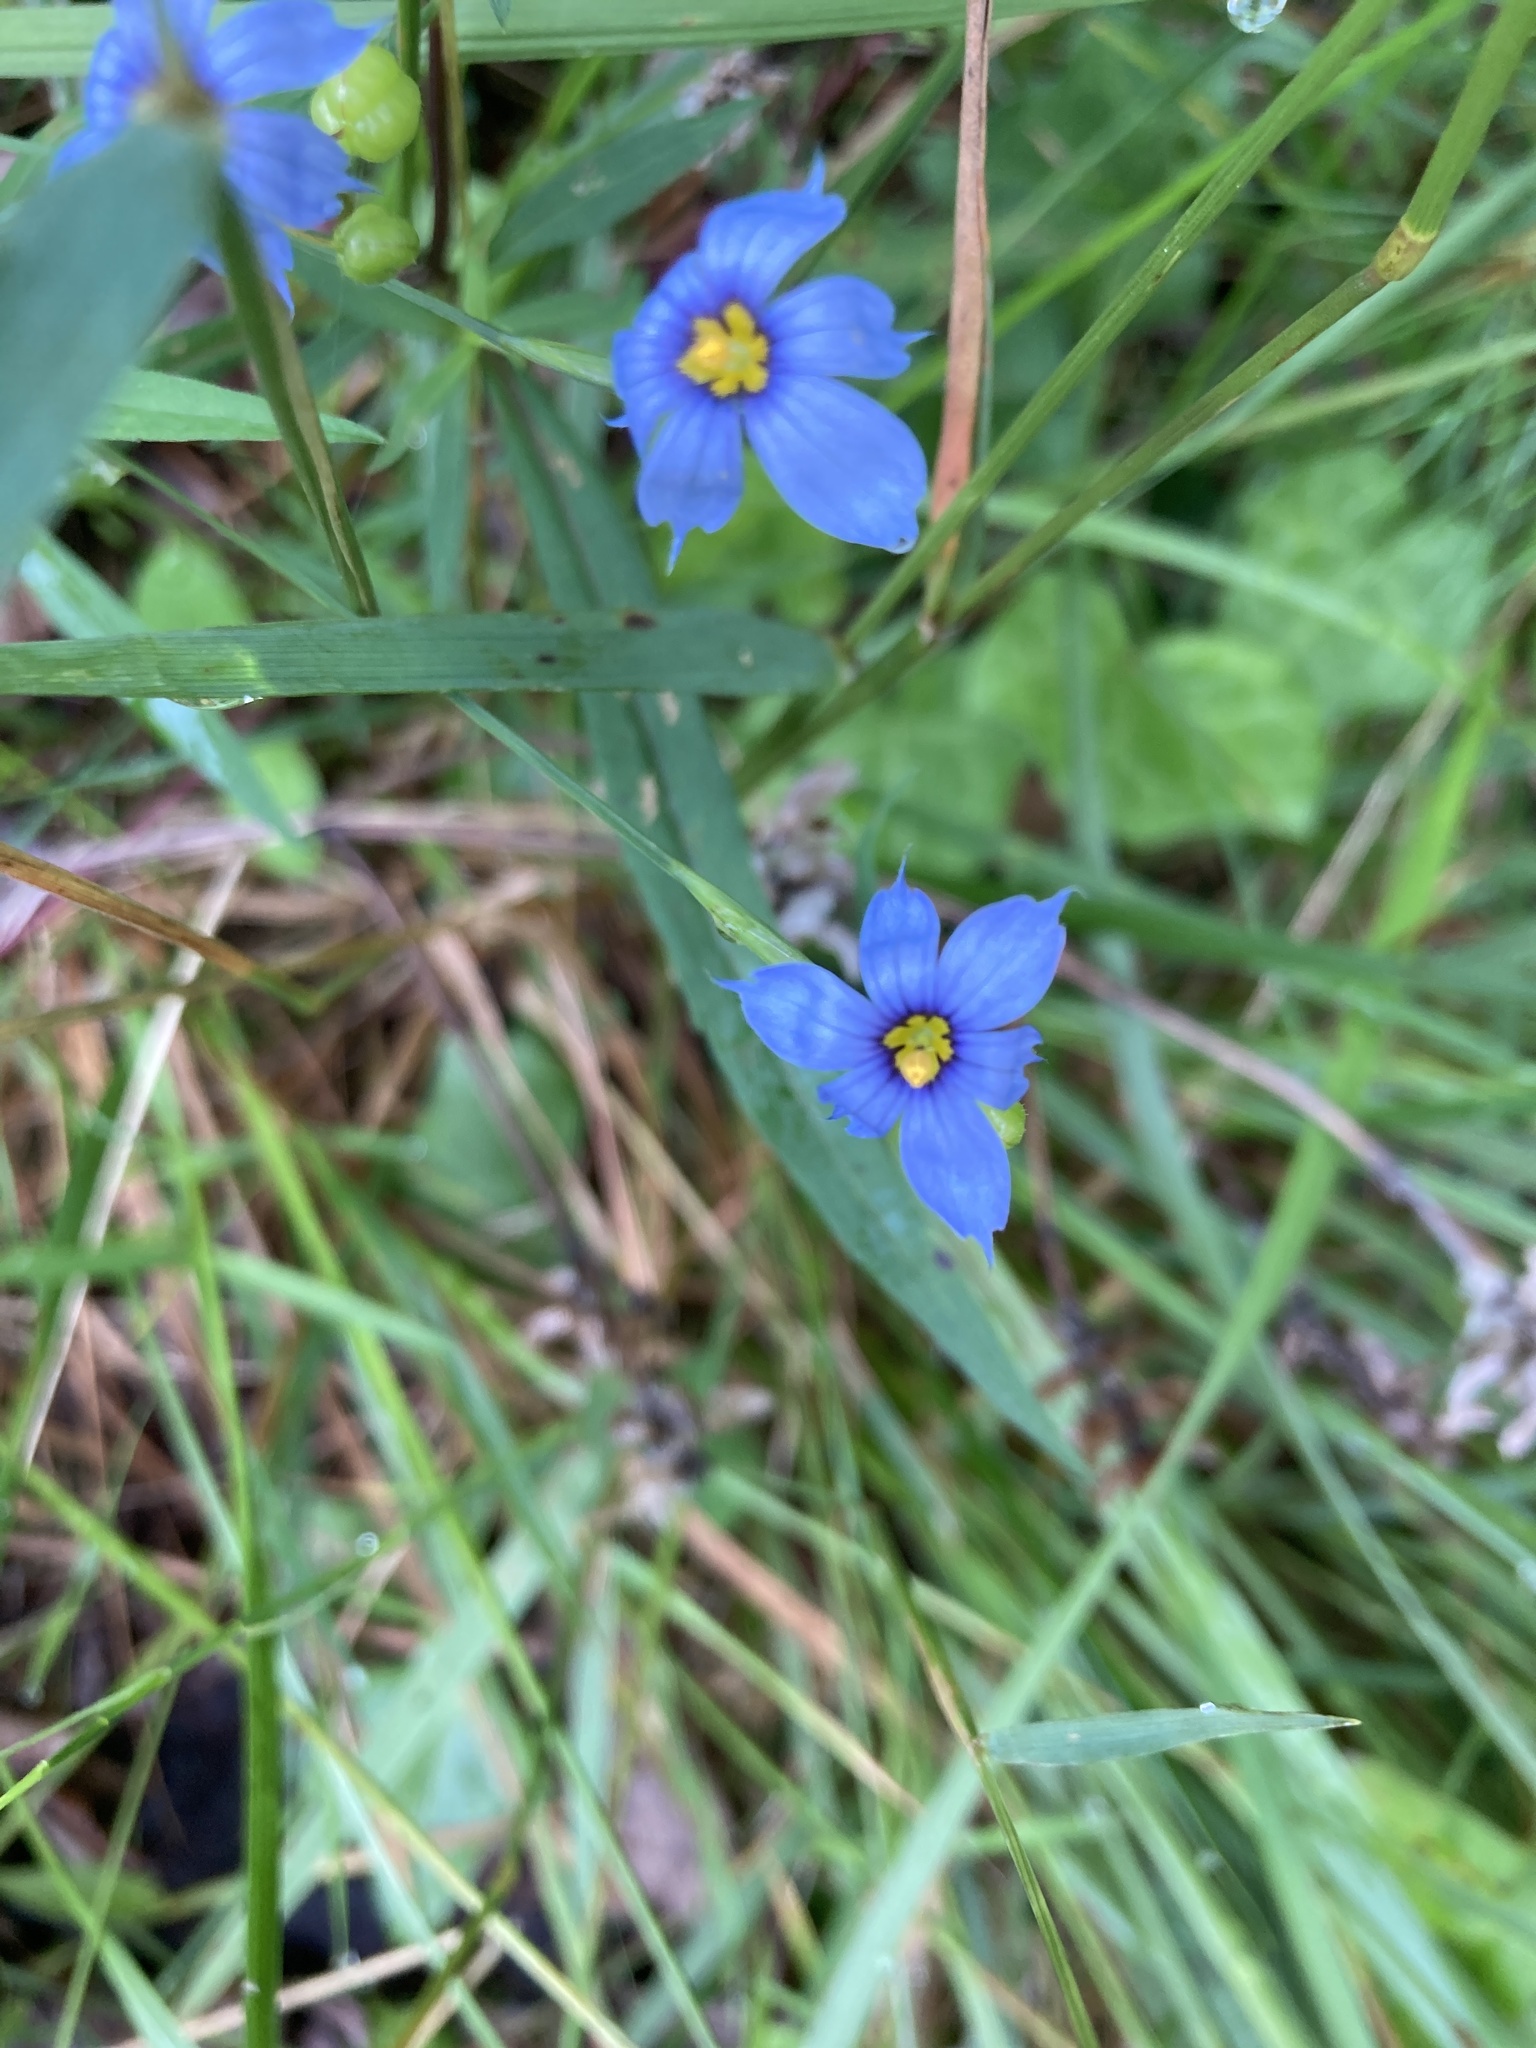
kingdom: Plantae
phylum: Tracheophyta
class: Liliopsida
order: Asparagales
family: Iridaceae
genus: Sisyrinchium
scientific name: Sisyrinchium angustifolium
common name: Narrow-leaf blue-eyed-grass
